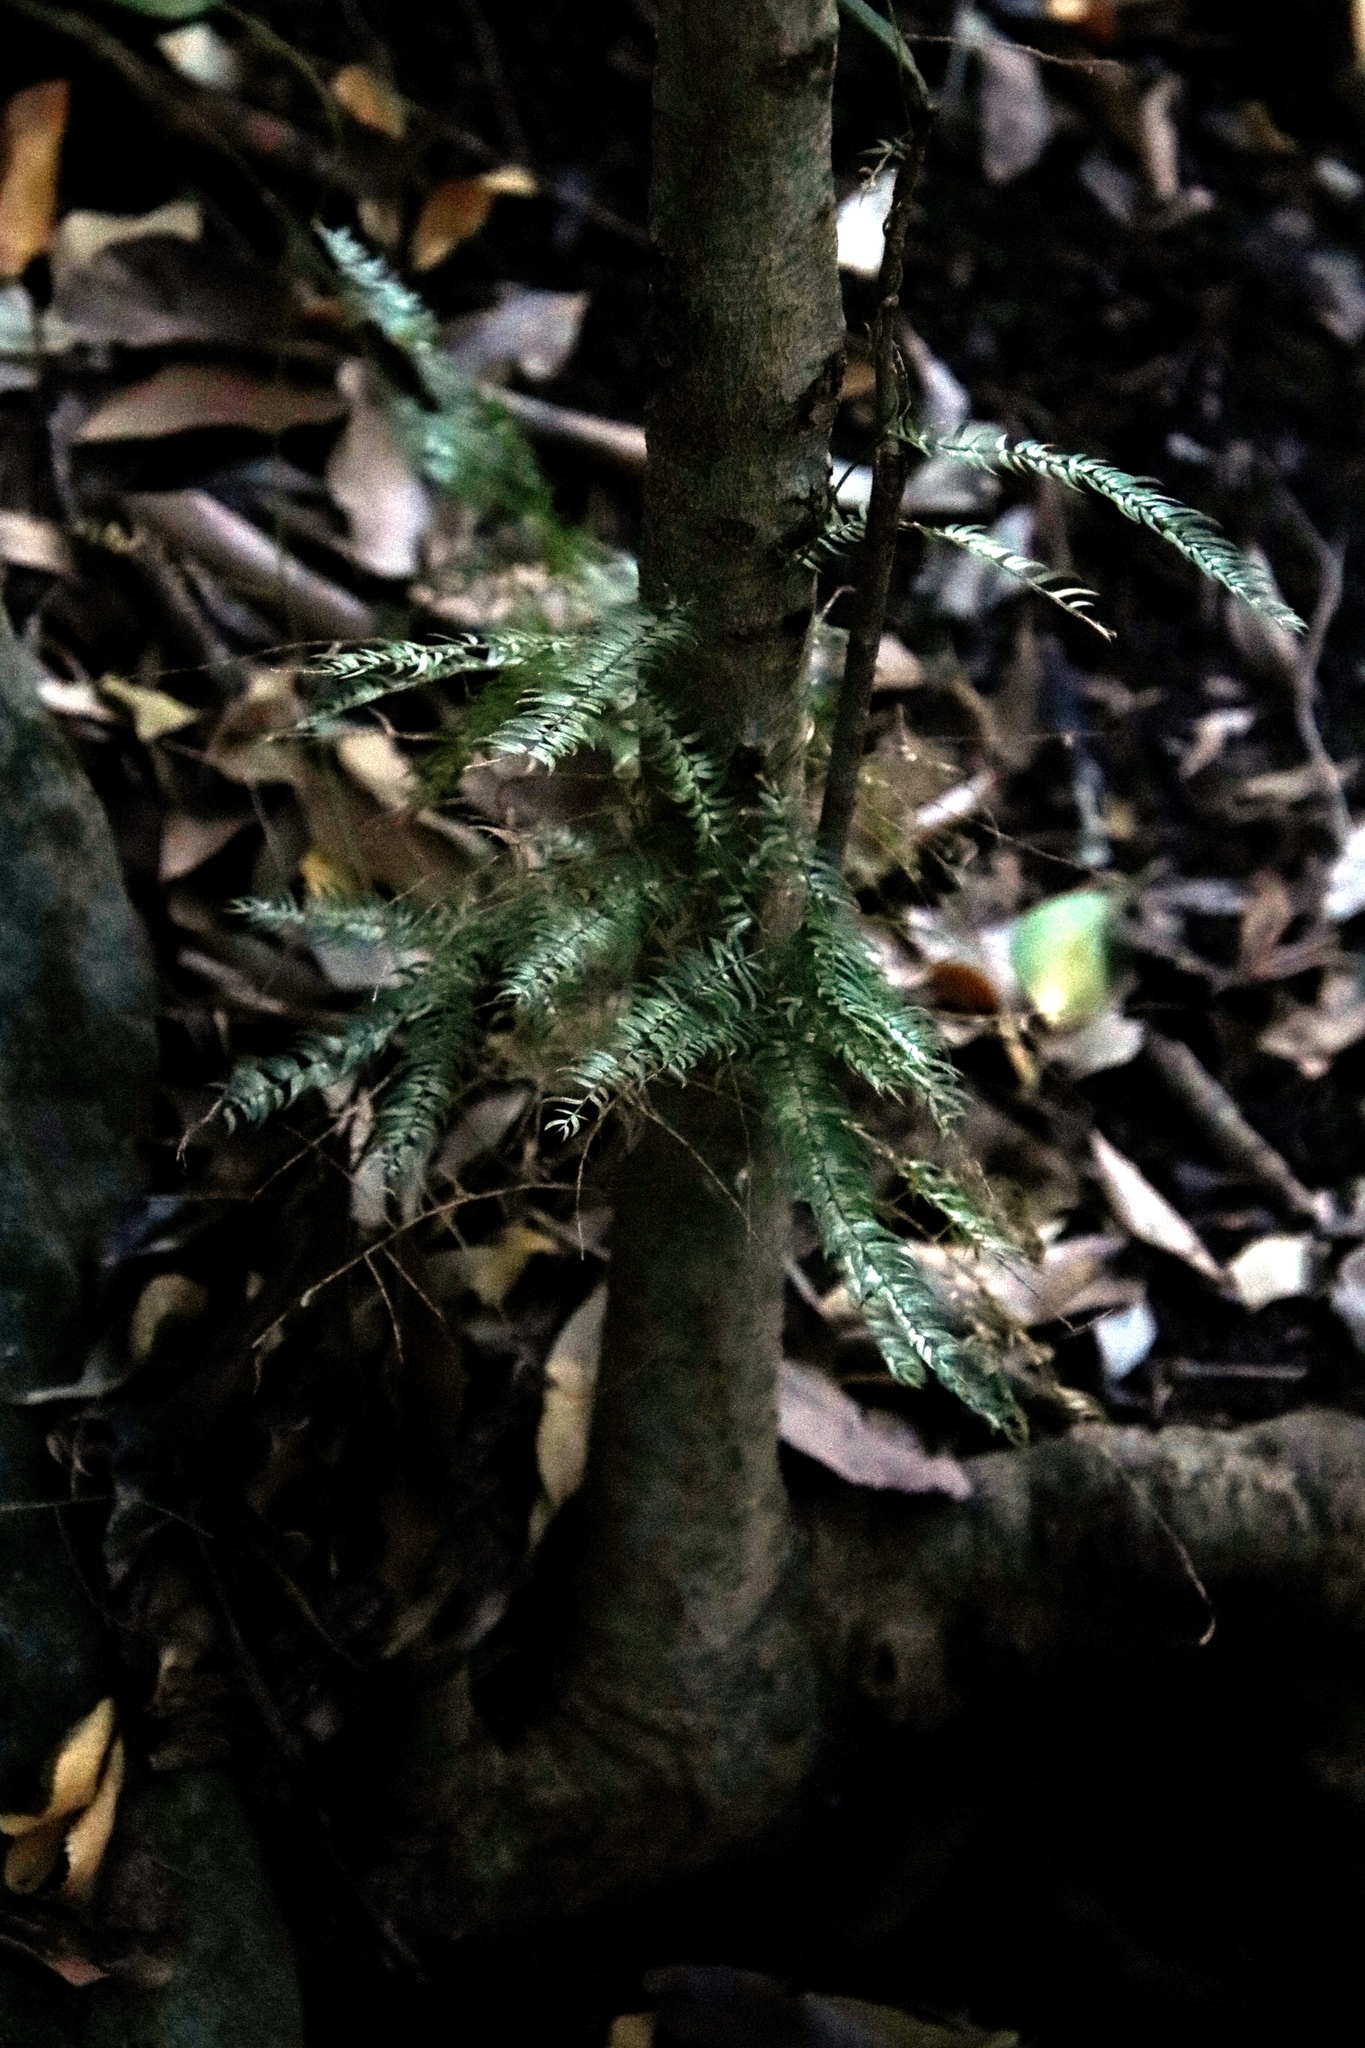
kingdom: Plantae
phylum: Tracheophyta
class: Liliopsida
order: Asparagales
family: Asparagaceae
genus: Asparagus
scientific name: Asparagus scandens
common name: Asparagus-fern
